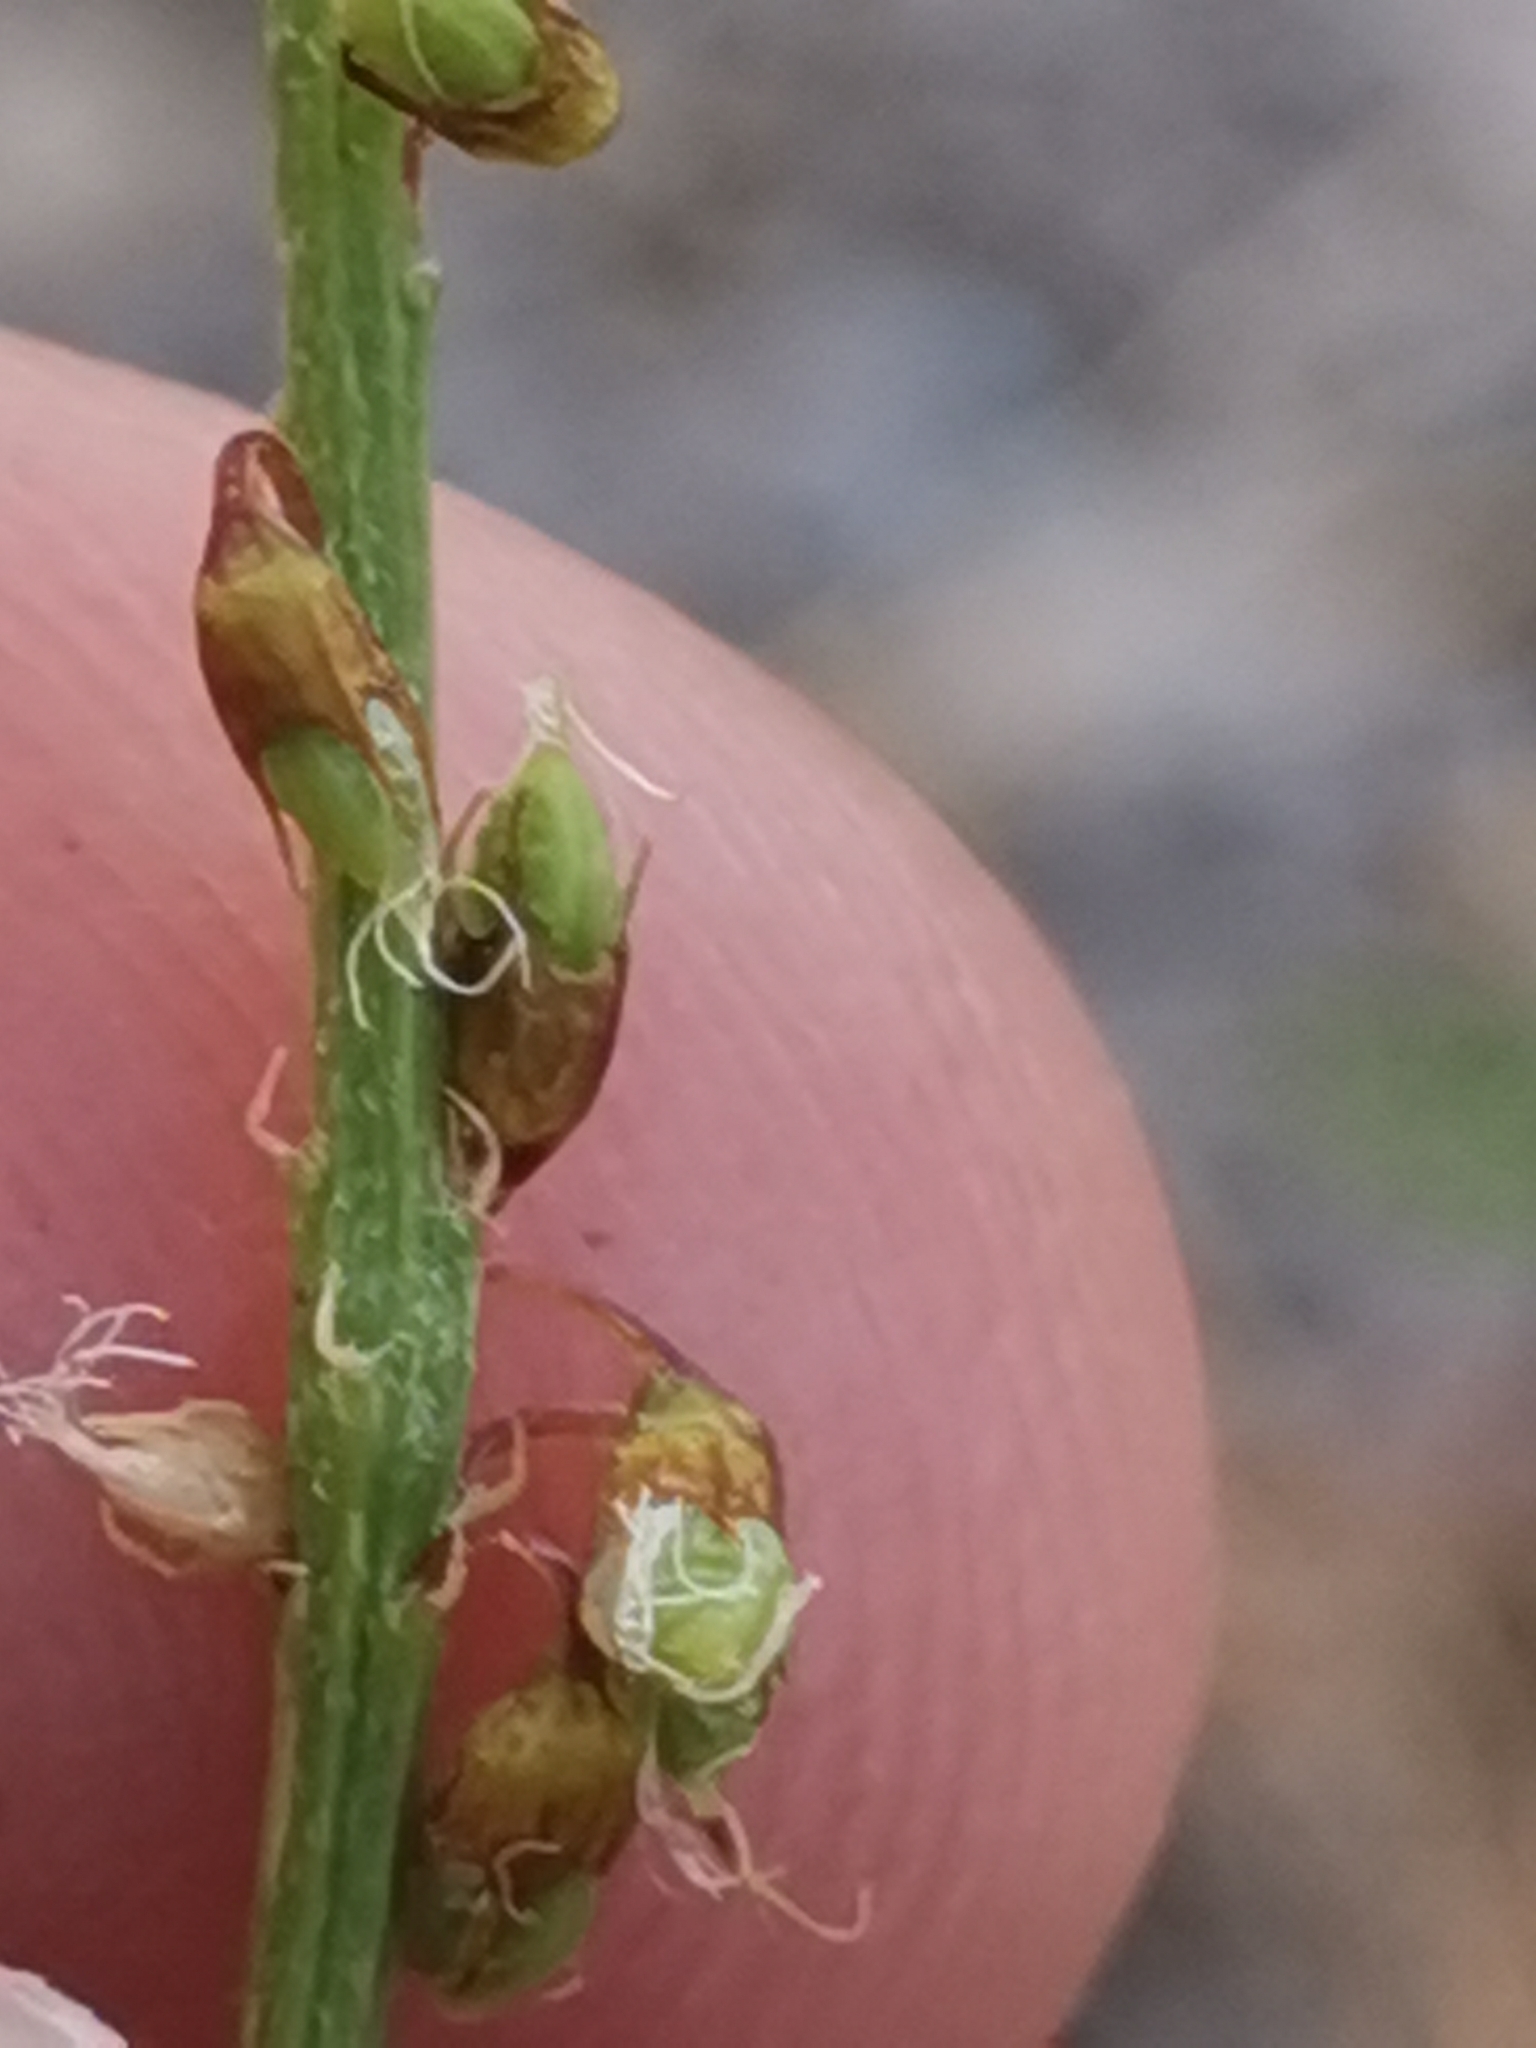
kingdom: Plantae
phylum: Tracheophyta
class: Magnoliopsida
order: Fabales
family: Fabaceae
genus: Melilotus
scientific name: Melilotus officinalis
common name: Sweetclover
